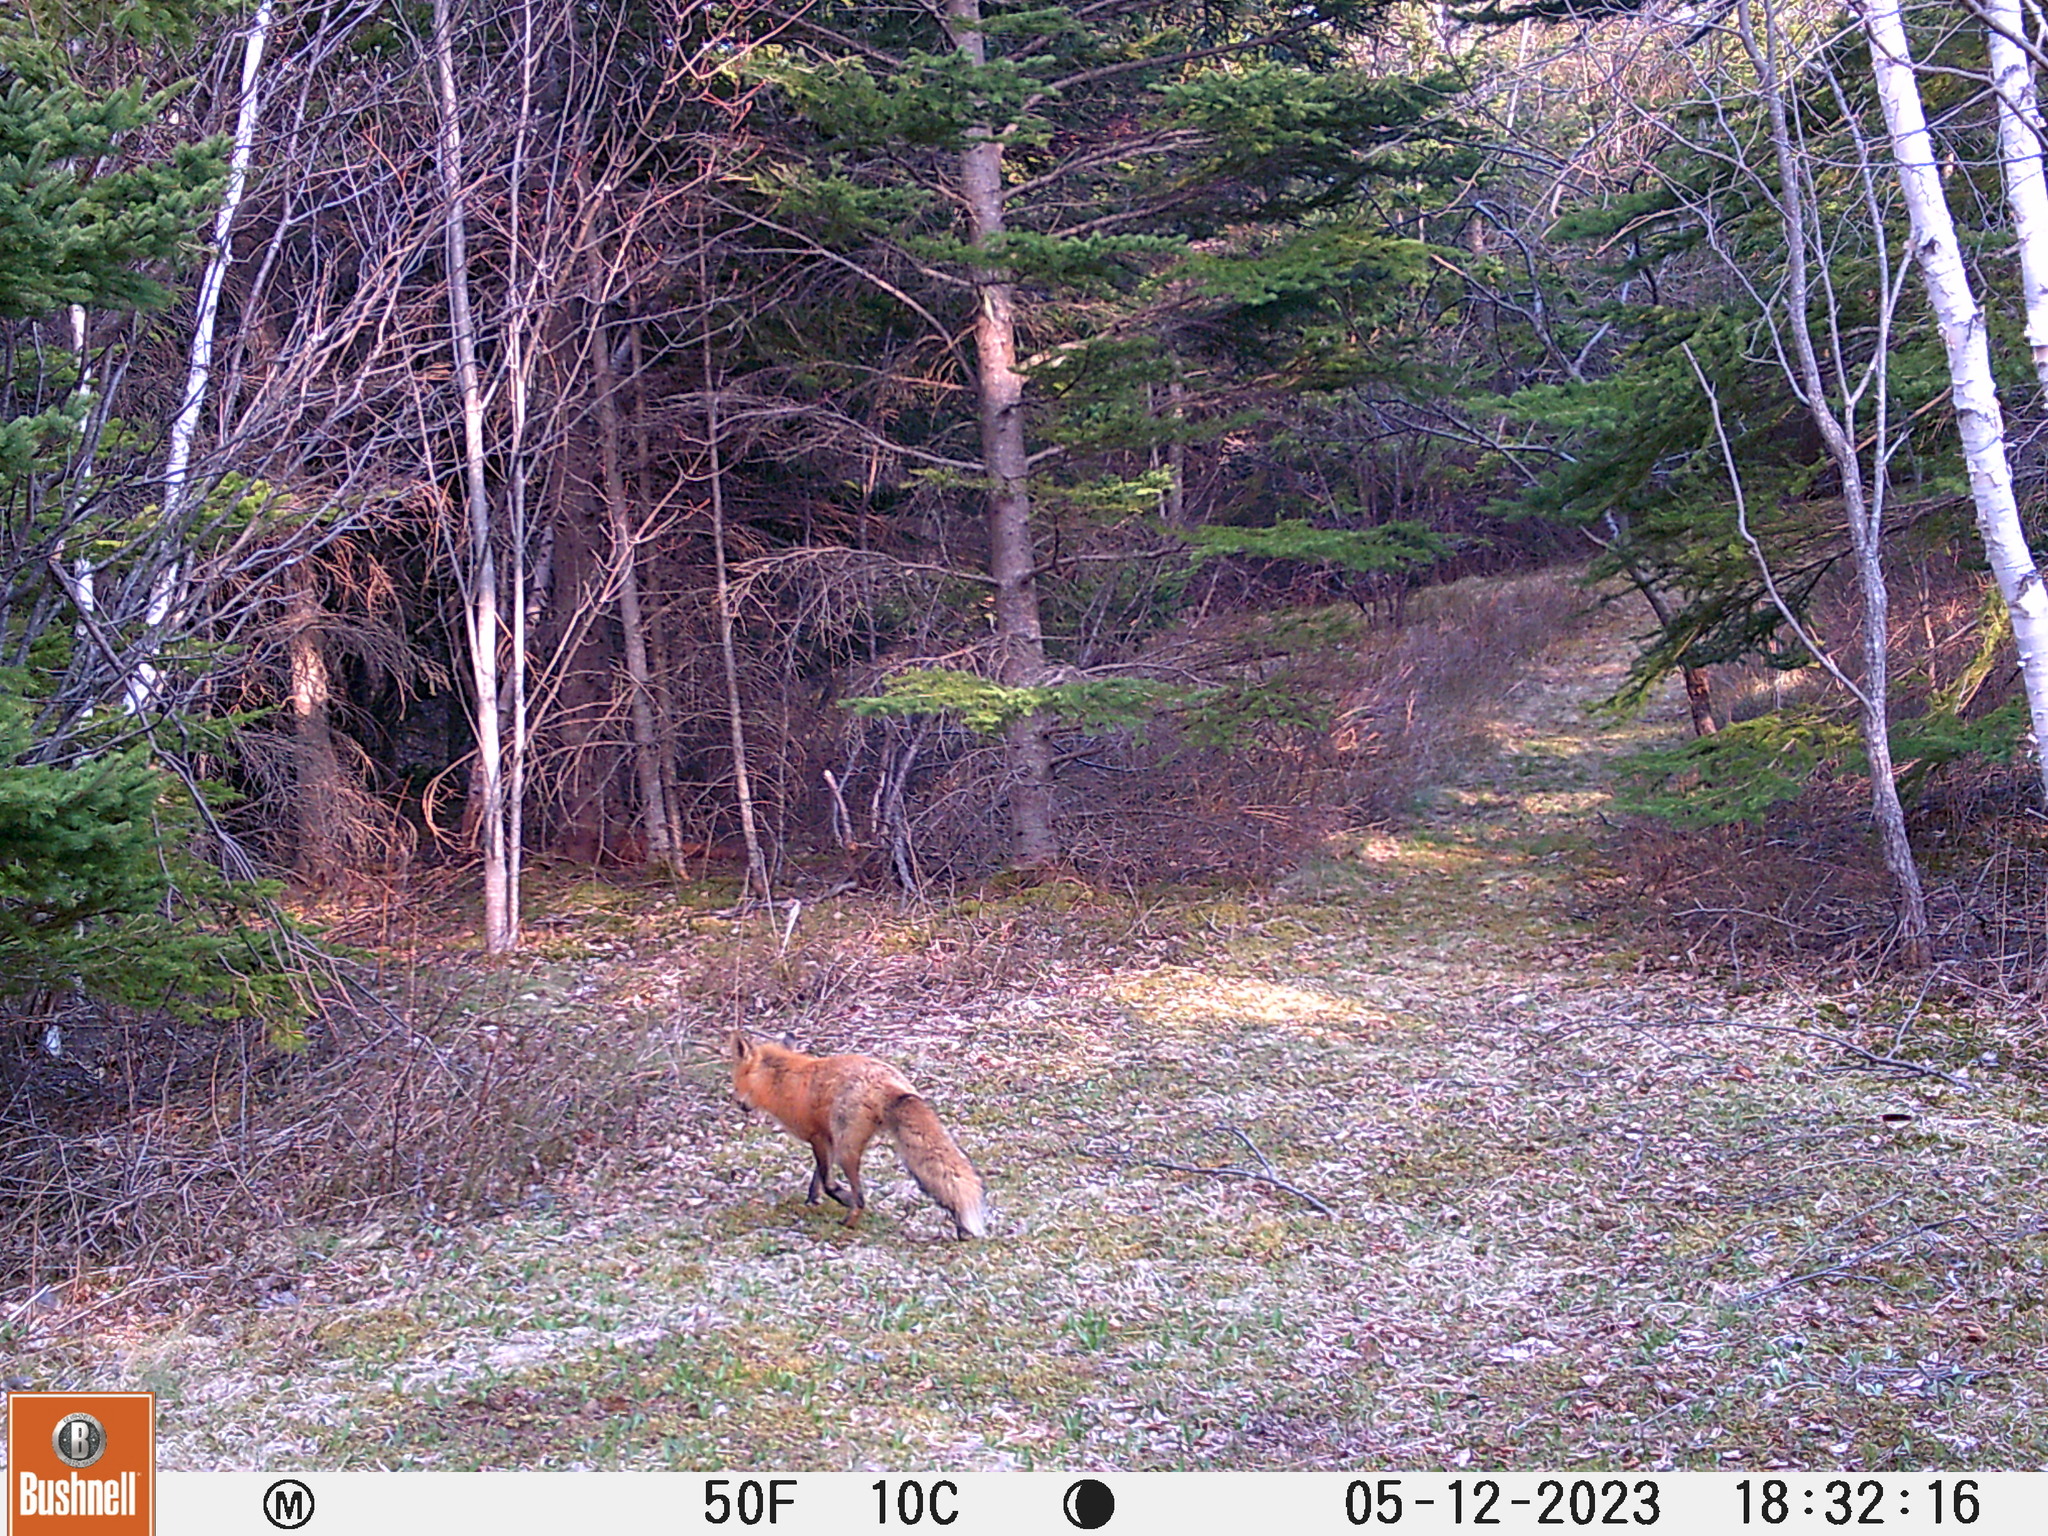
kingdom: Animalia
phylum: Chordata
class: Mammalia
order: Carnivora
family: Canidae
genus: Vulpes
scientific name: Vulpes vulpes
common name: Red fox
